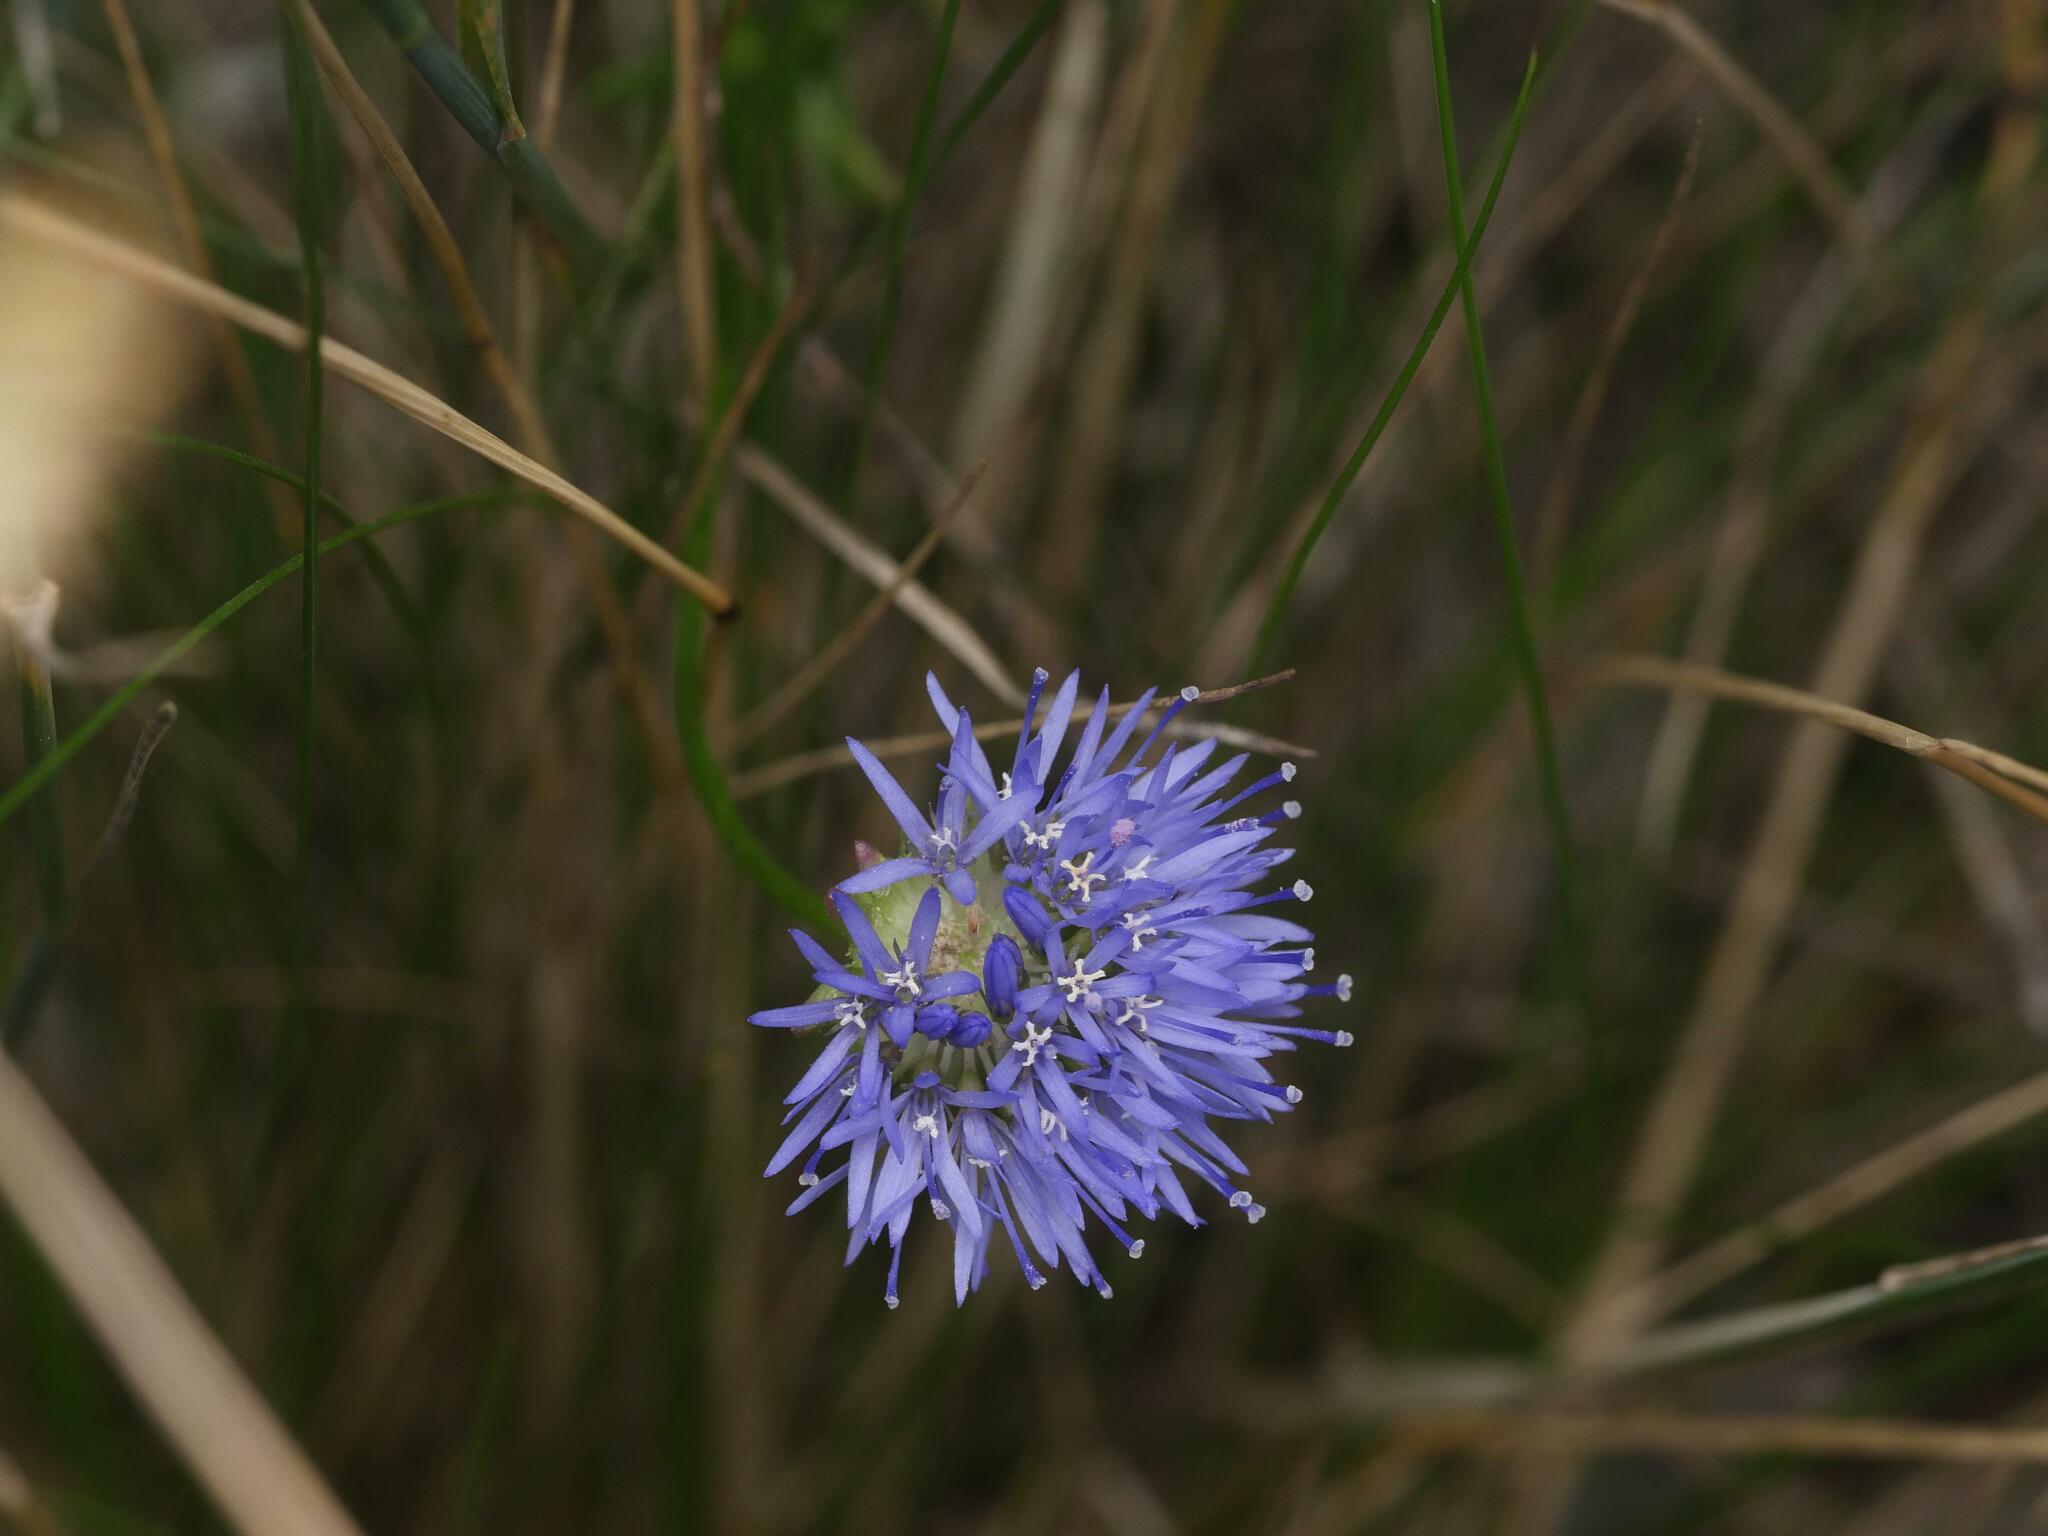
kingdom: Plantae
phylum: Tracheophyta
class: Magnoliopsida
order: Asterales
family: Campanulaceae
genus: Jasione
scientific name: Jasione montana
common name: Sheep's-bit
